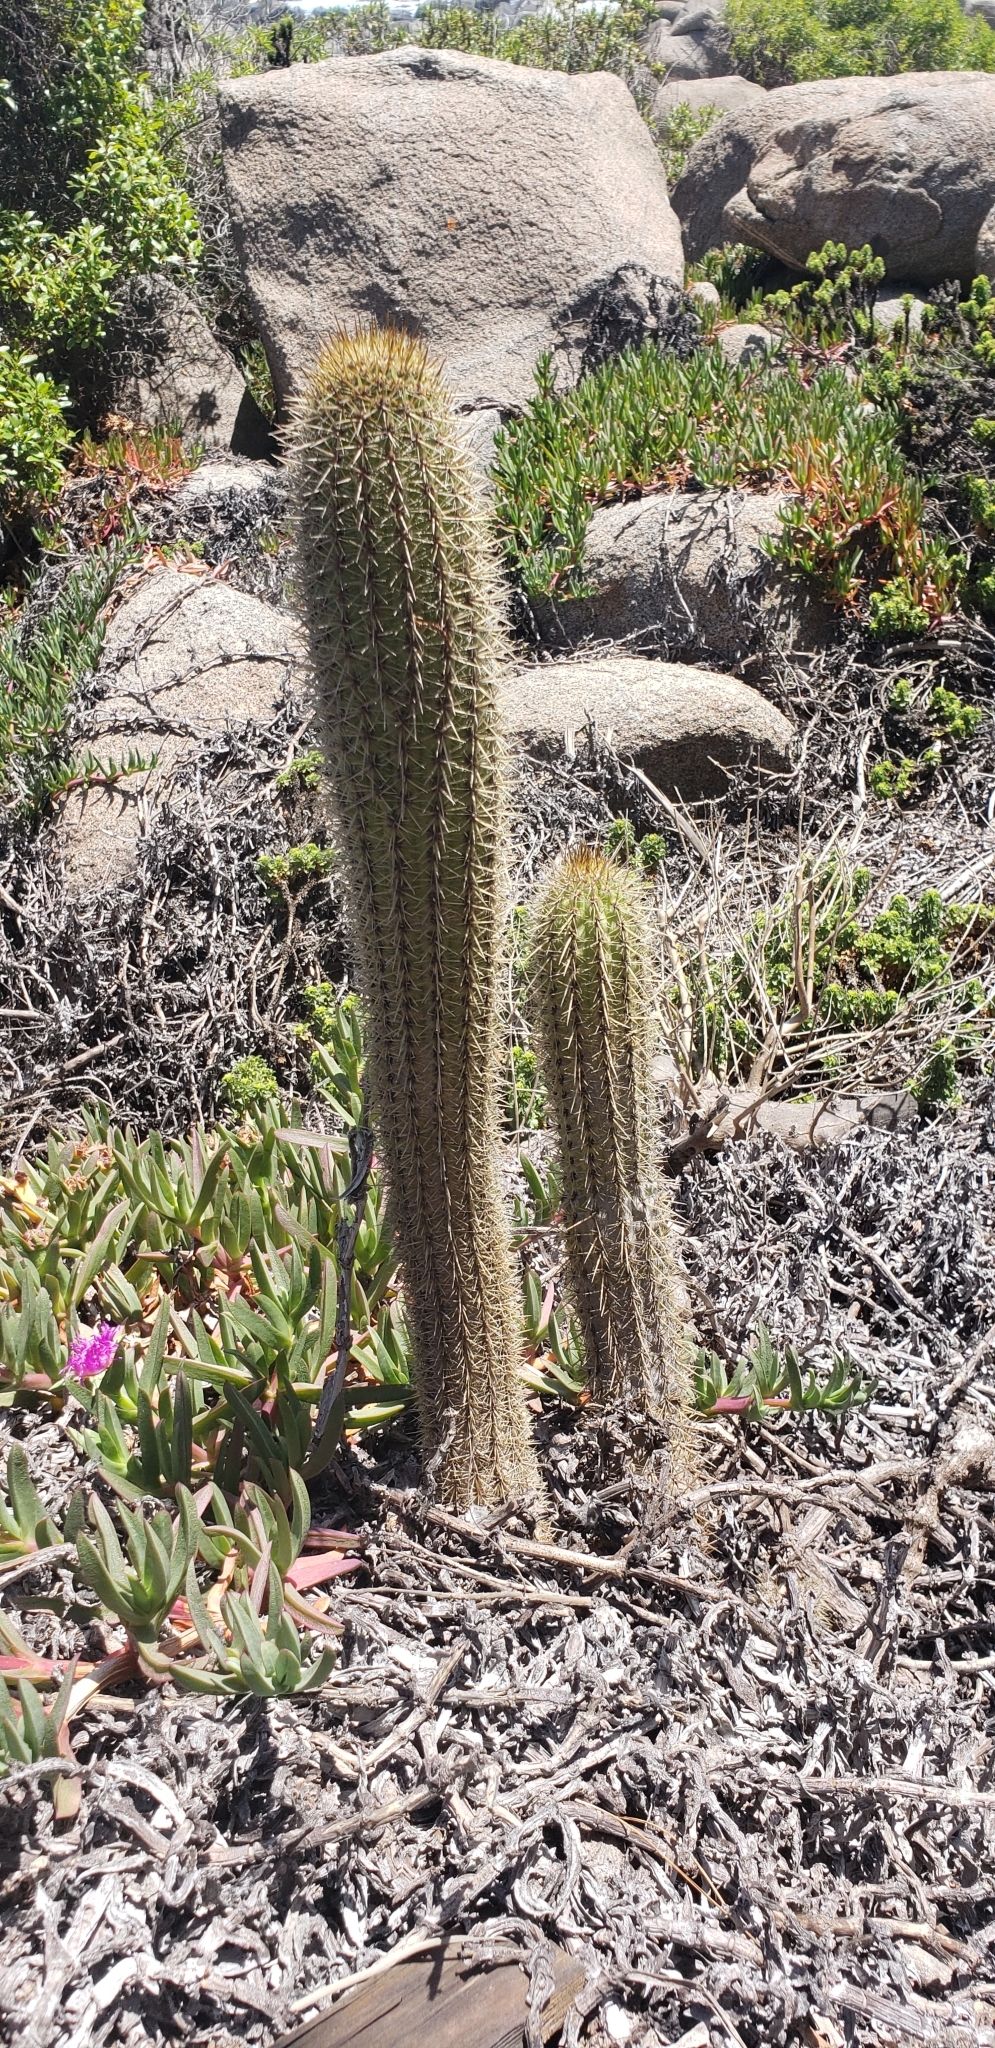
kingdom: Plantae
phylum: Tracheophyta
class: Magnoliopsida
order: Caryophyllales
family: Cactaceae
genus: Leucostele
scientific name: Leucostele litoralis
